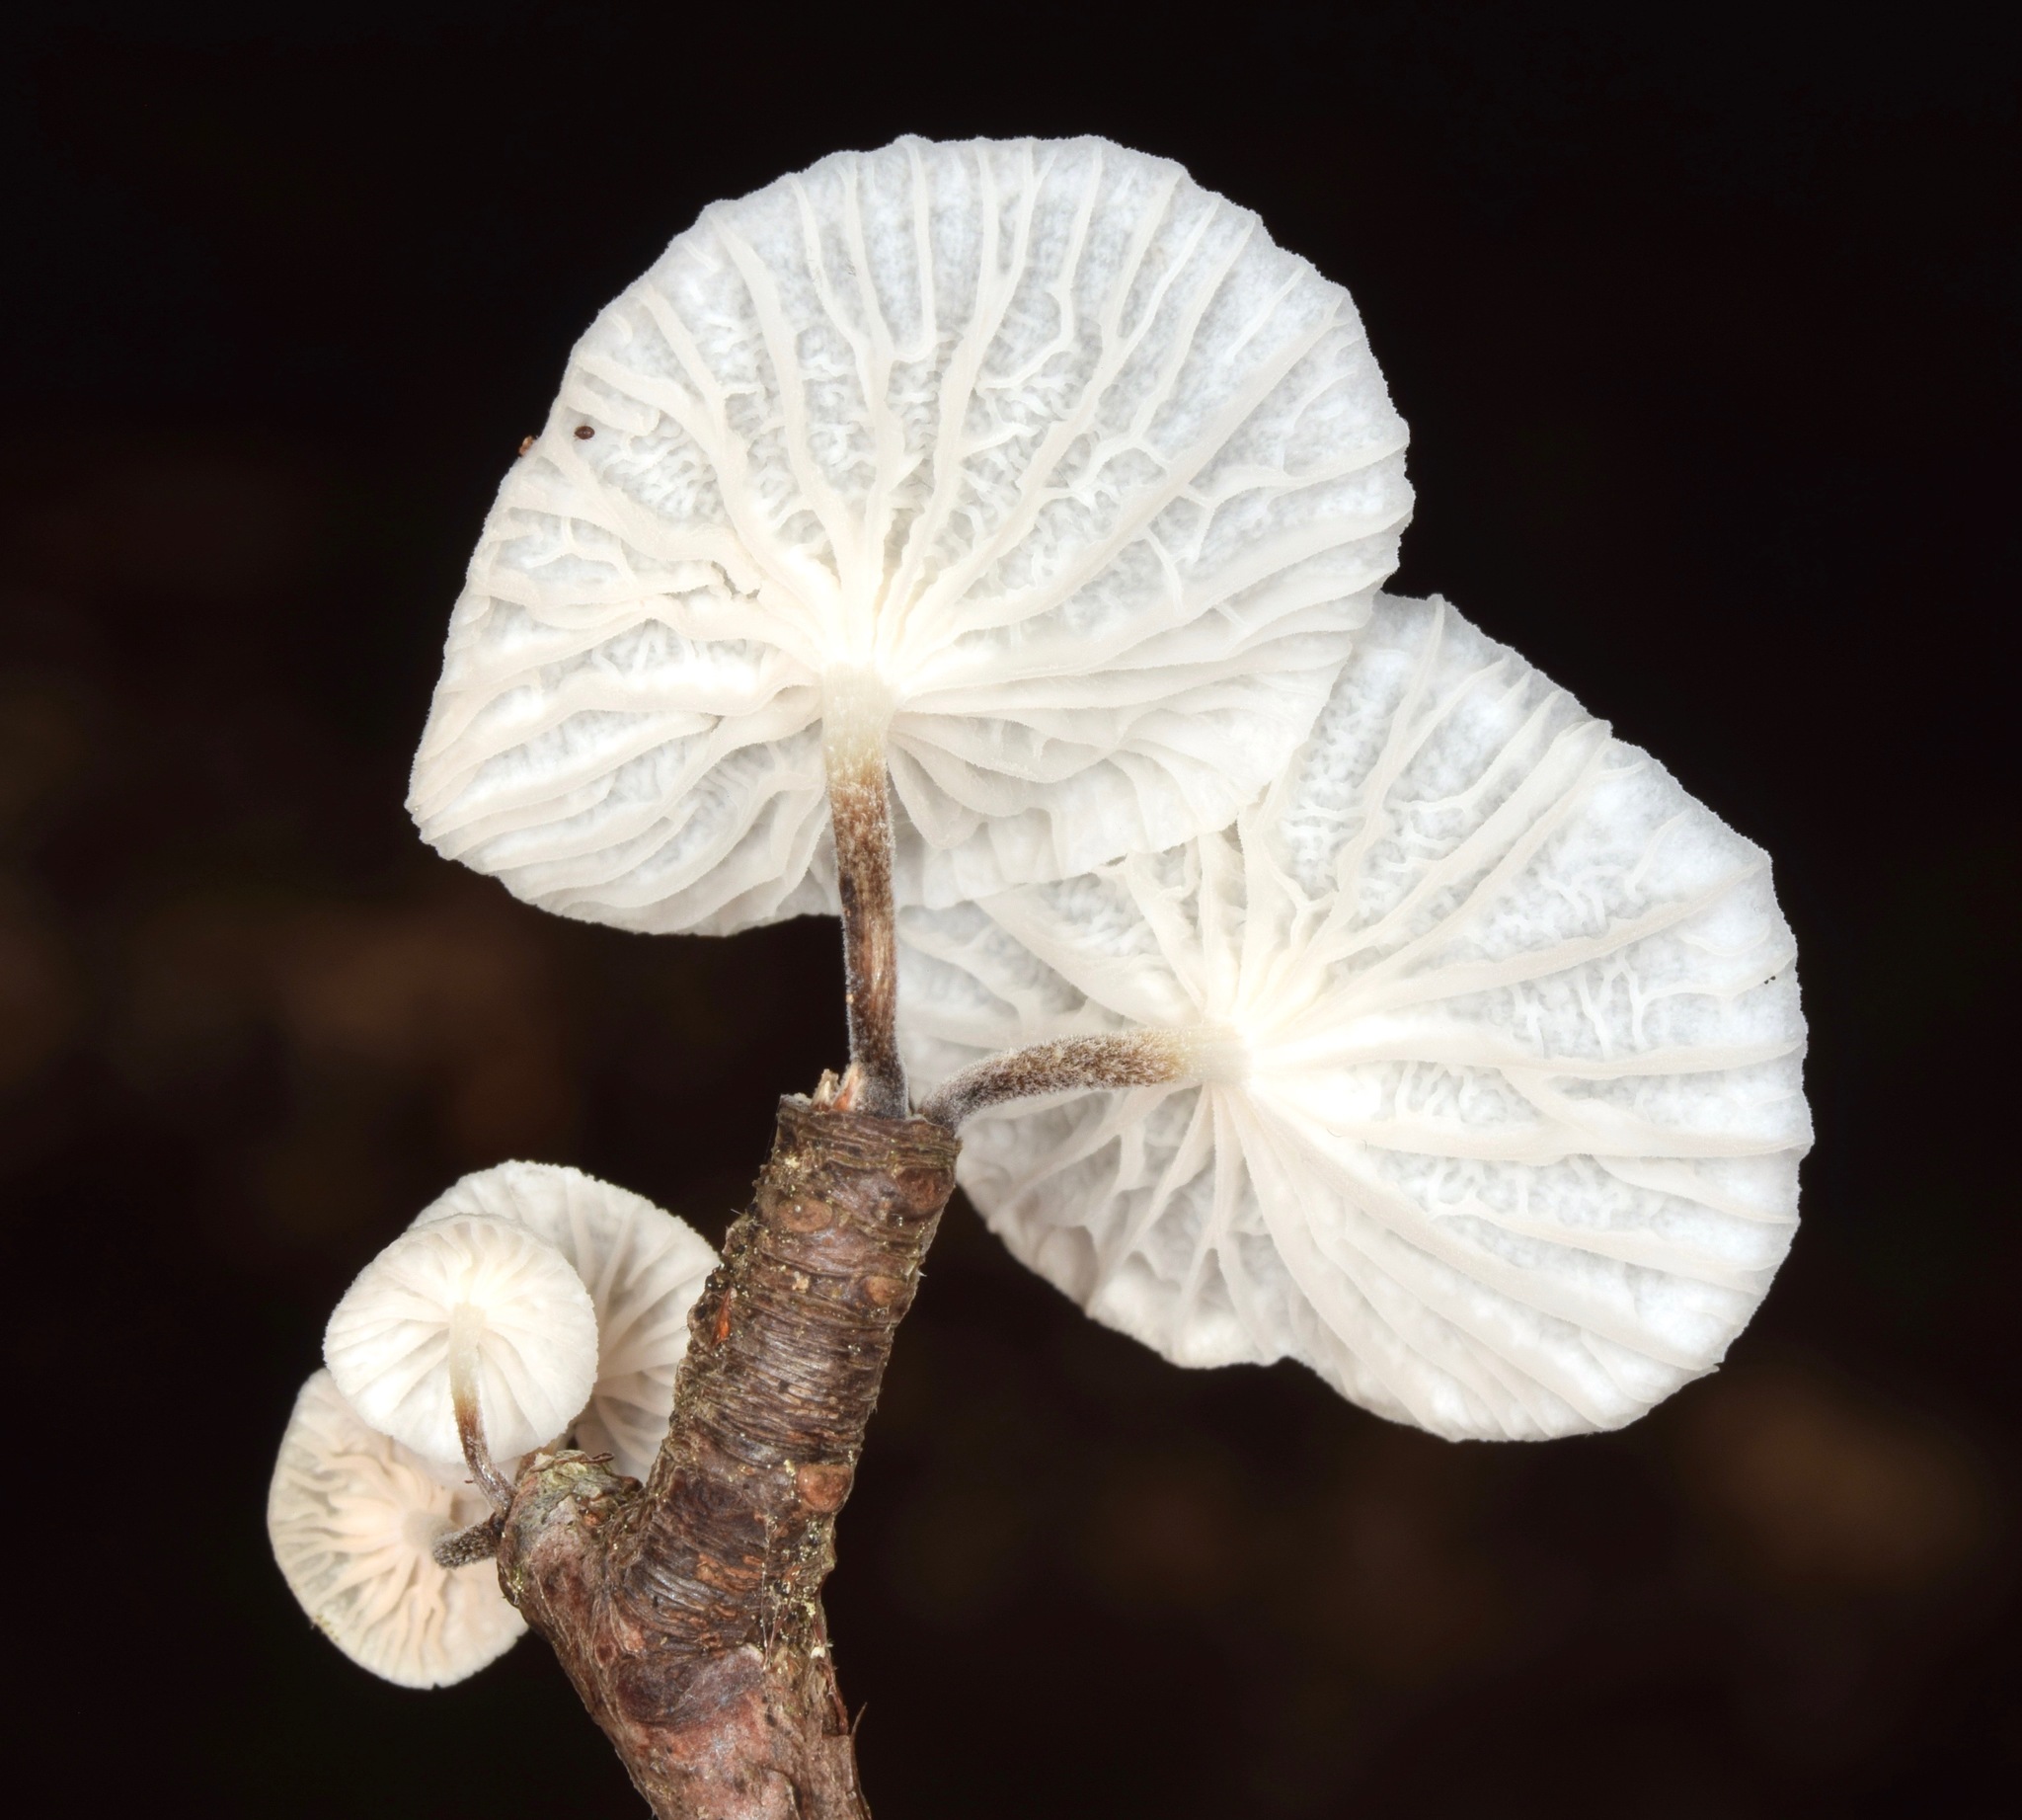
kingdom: Fungi
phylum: Basidiomycota
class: Agaricomycetes
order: Agaricales
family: Omphalotaceae
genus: Marasmiellus
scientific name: Marasmiellus candidus
